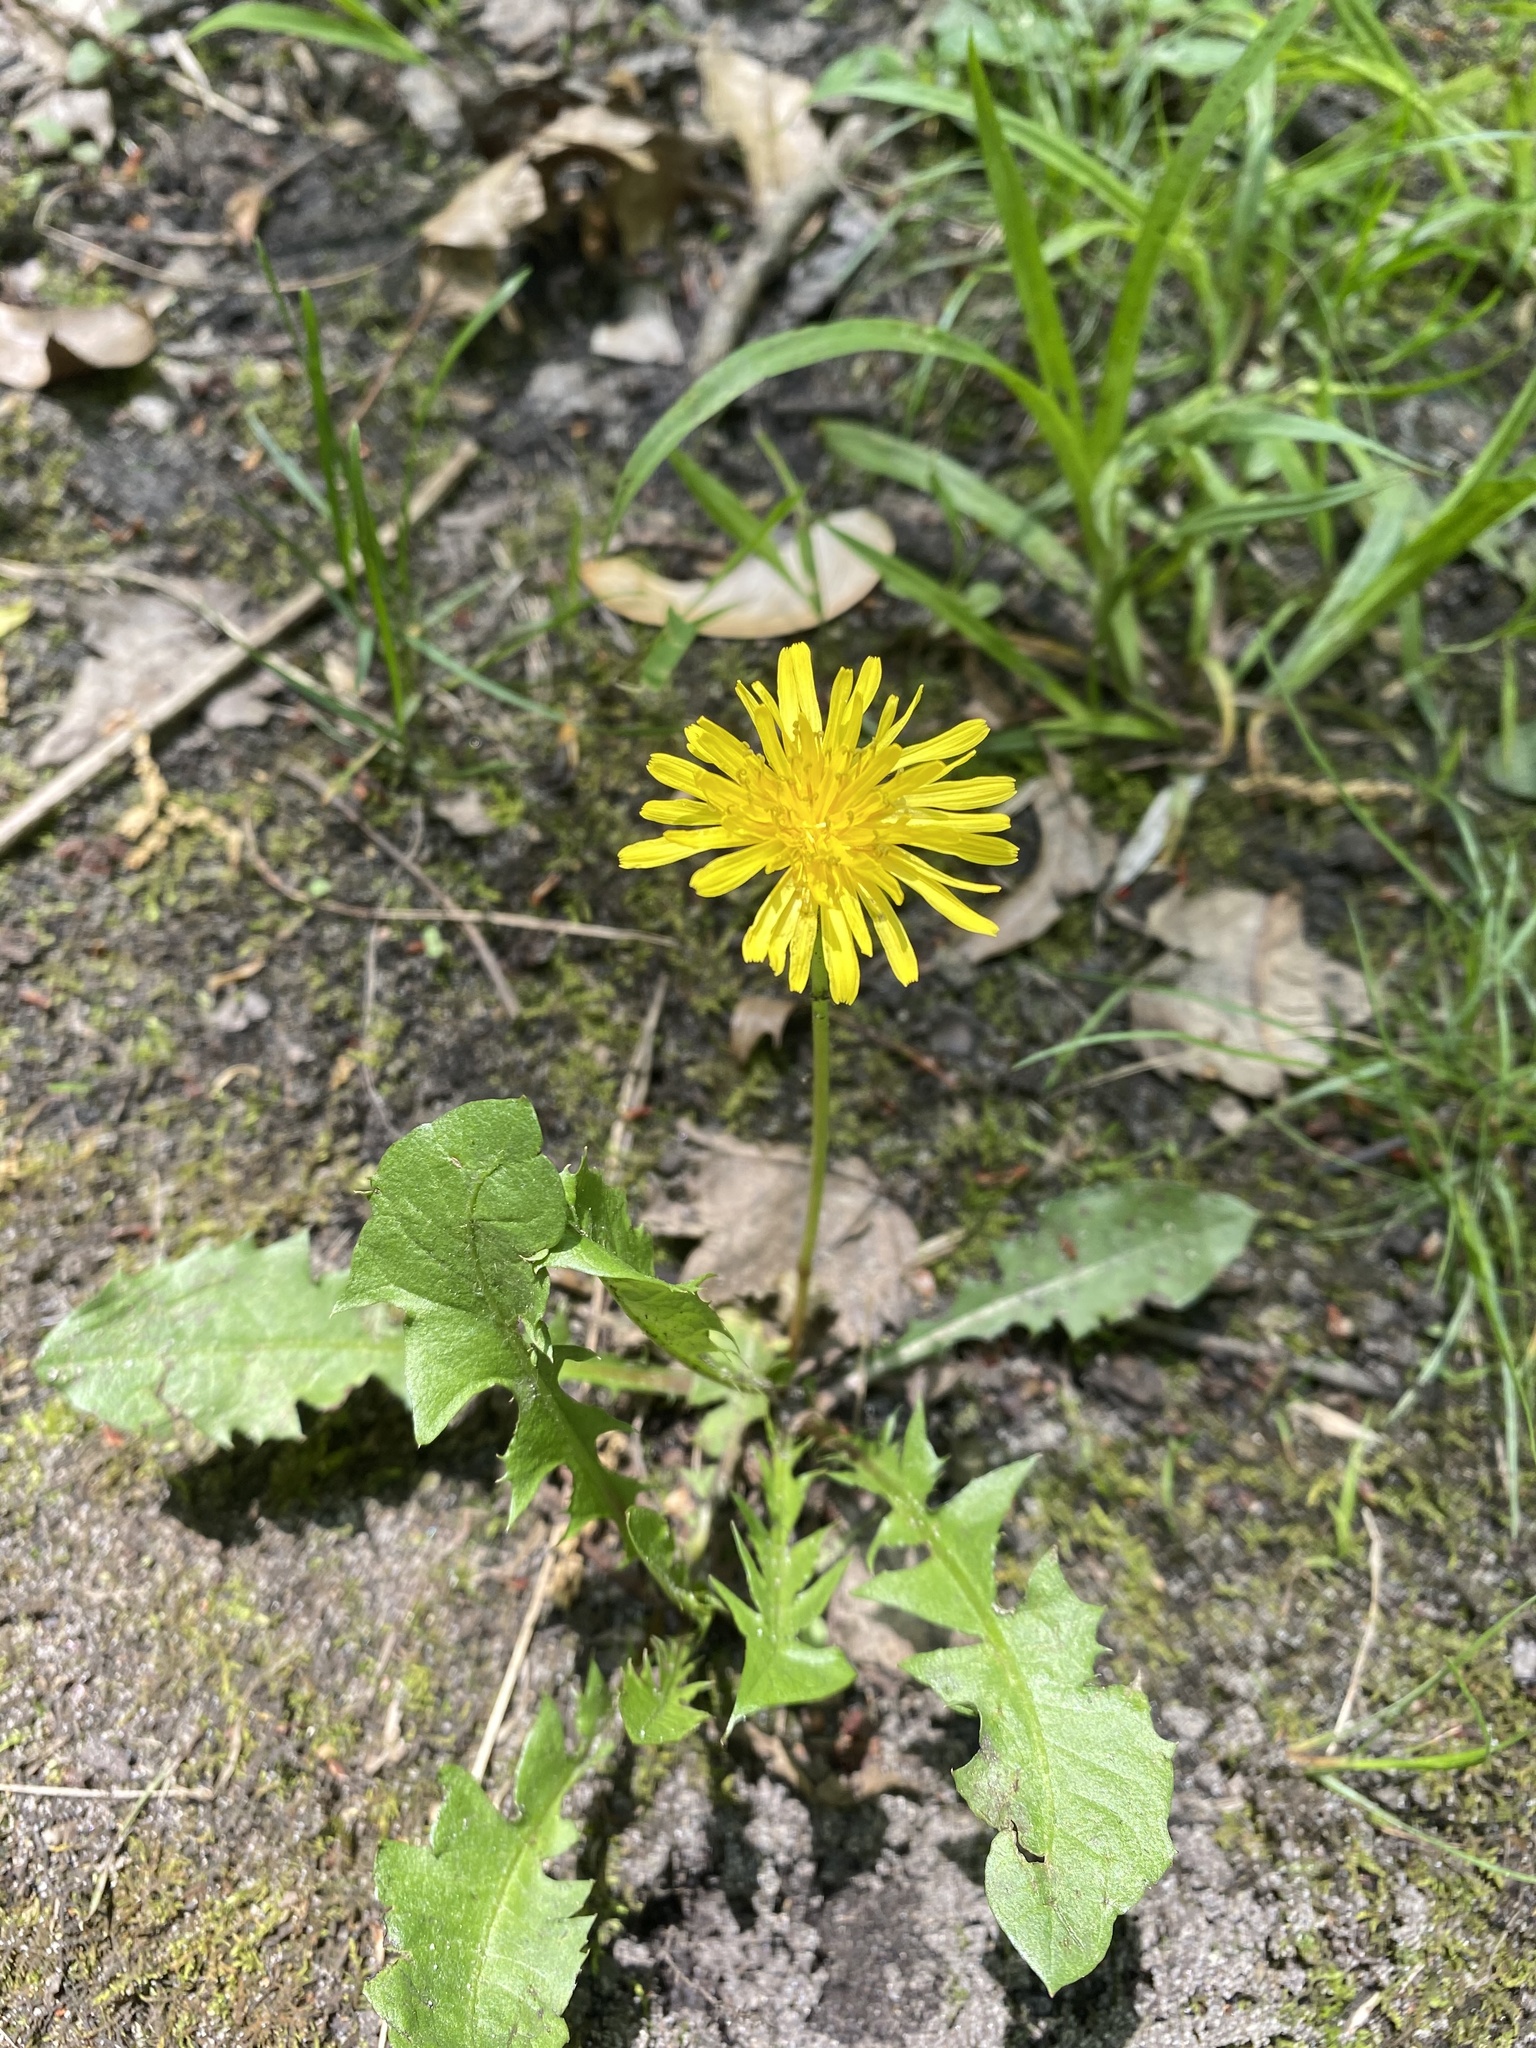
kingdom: Plantae
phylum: Tracheophyta
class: Magnoliopsida
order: Asterales
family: Asteraceae
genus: Taraxacum
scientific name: Taraxacum officinale
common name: Common dandelion
